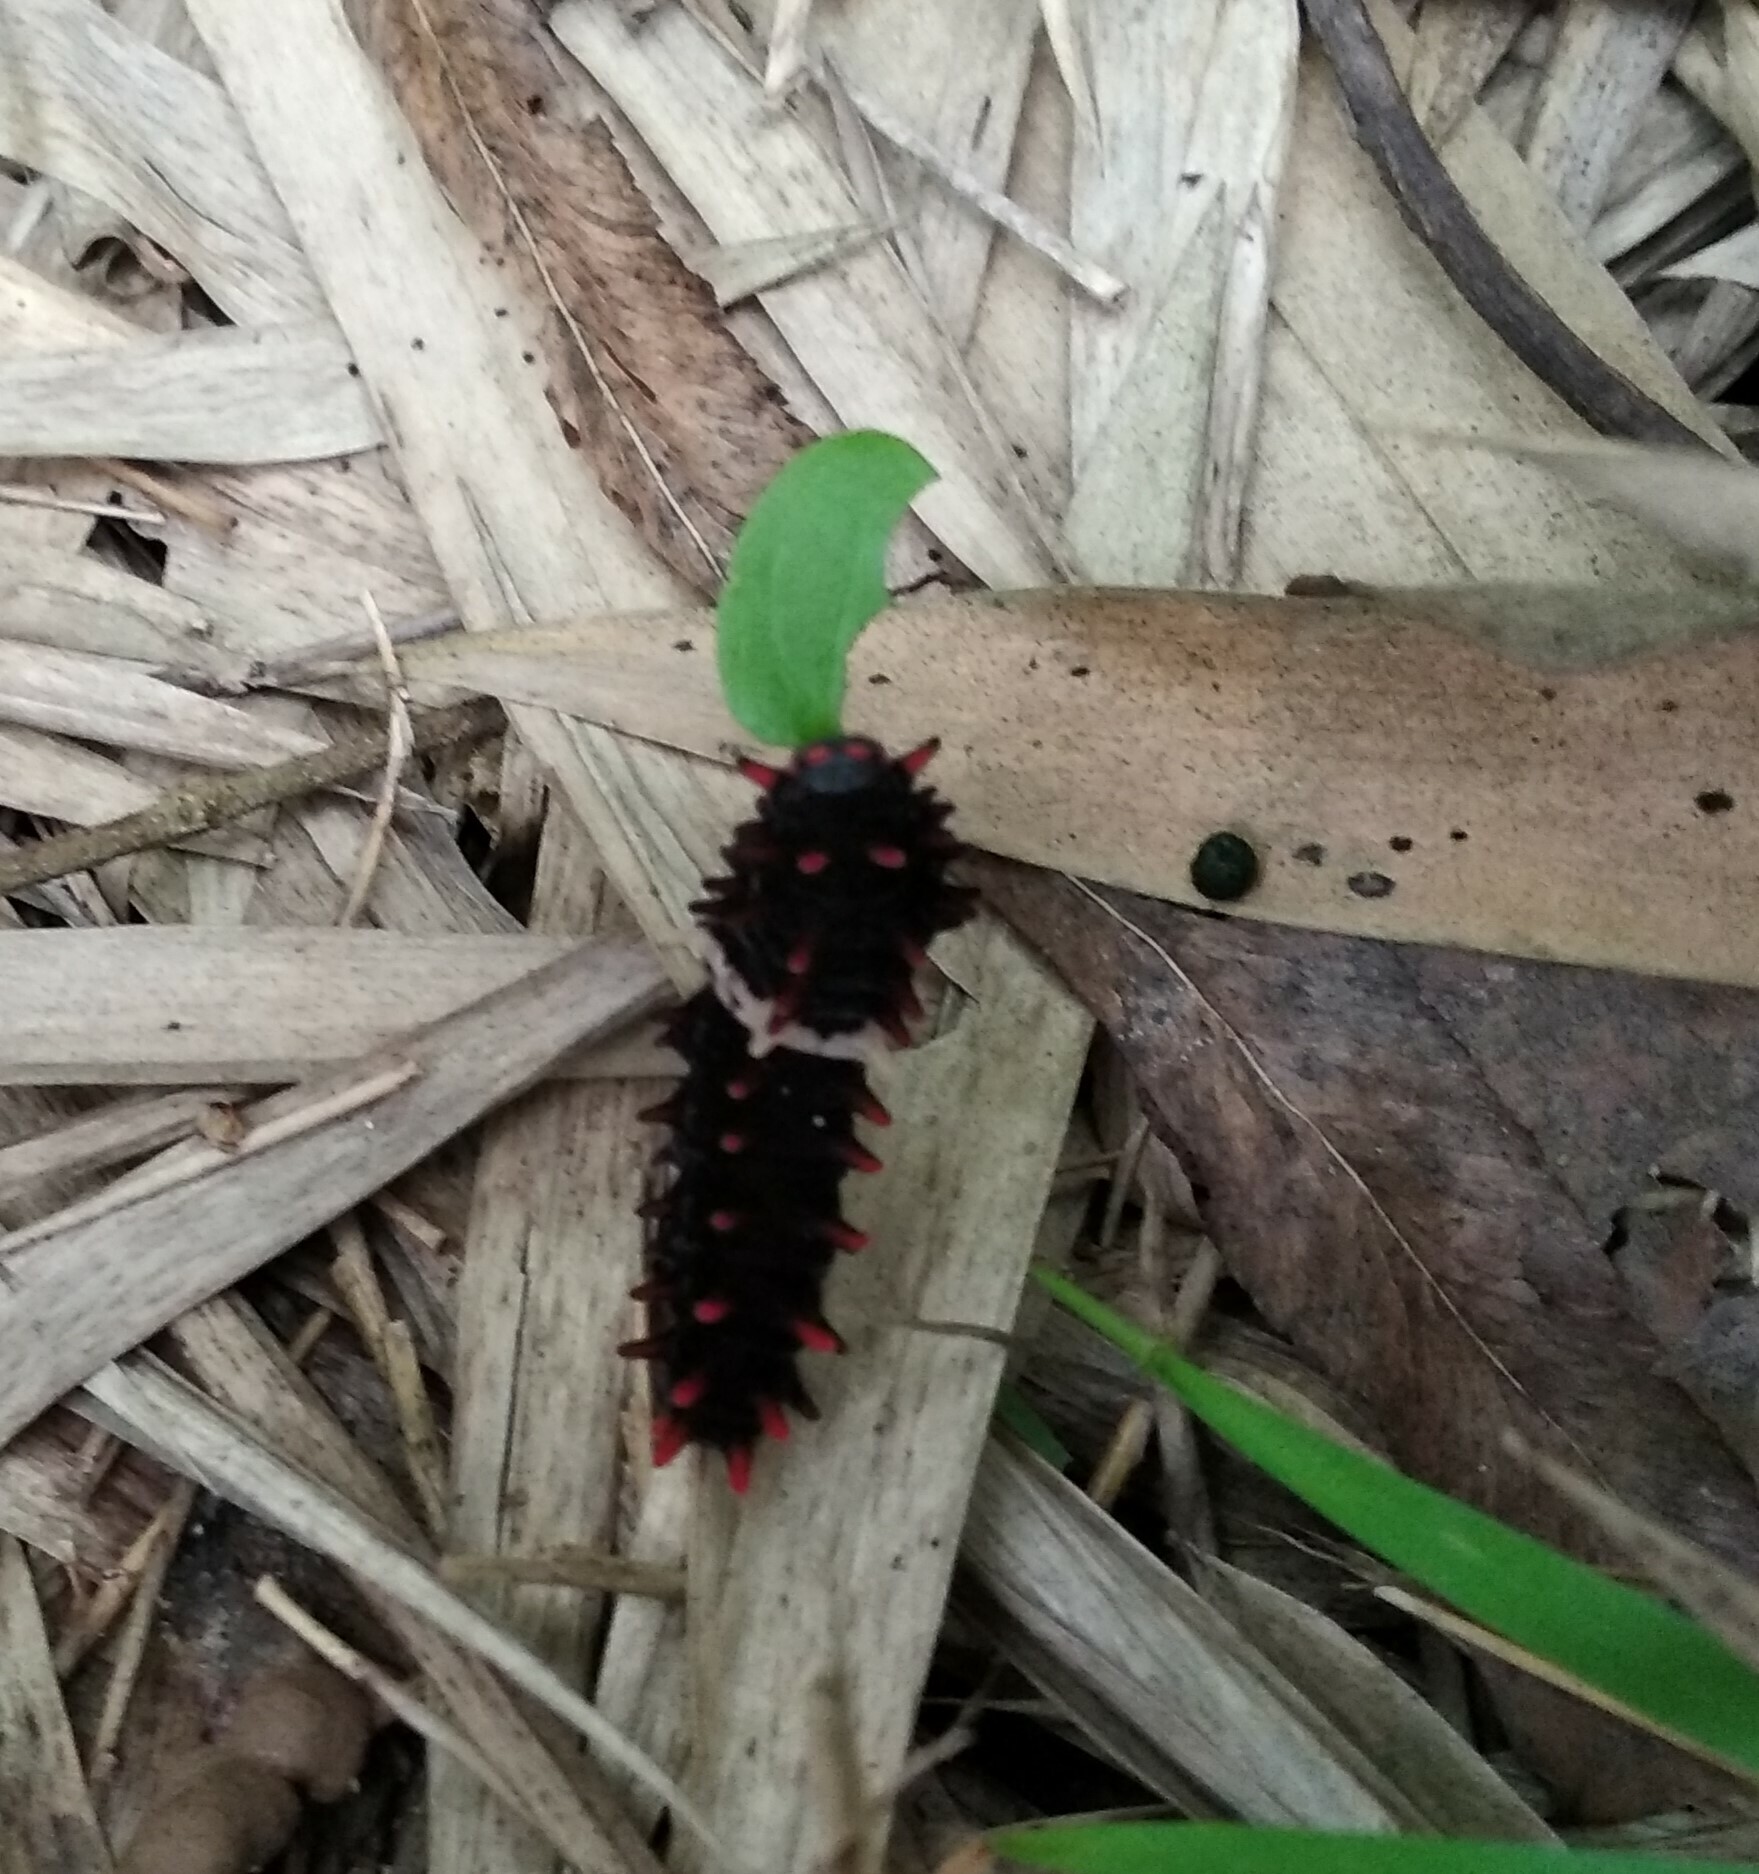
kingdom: Animalia
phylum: Arthropoda
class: Insecta
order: Lepidoptera
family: Papilionidae
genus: Pachliopta
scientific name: Pachliopta aristolochiae
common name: Common rose
